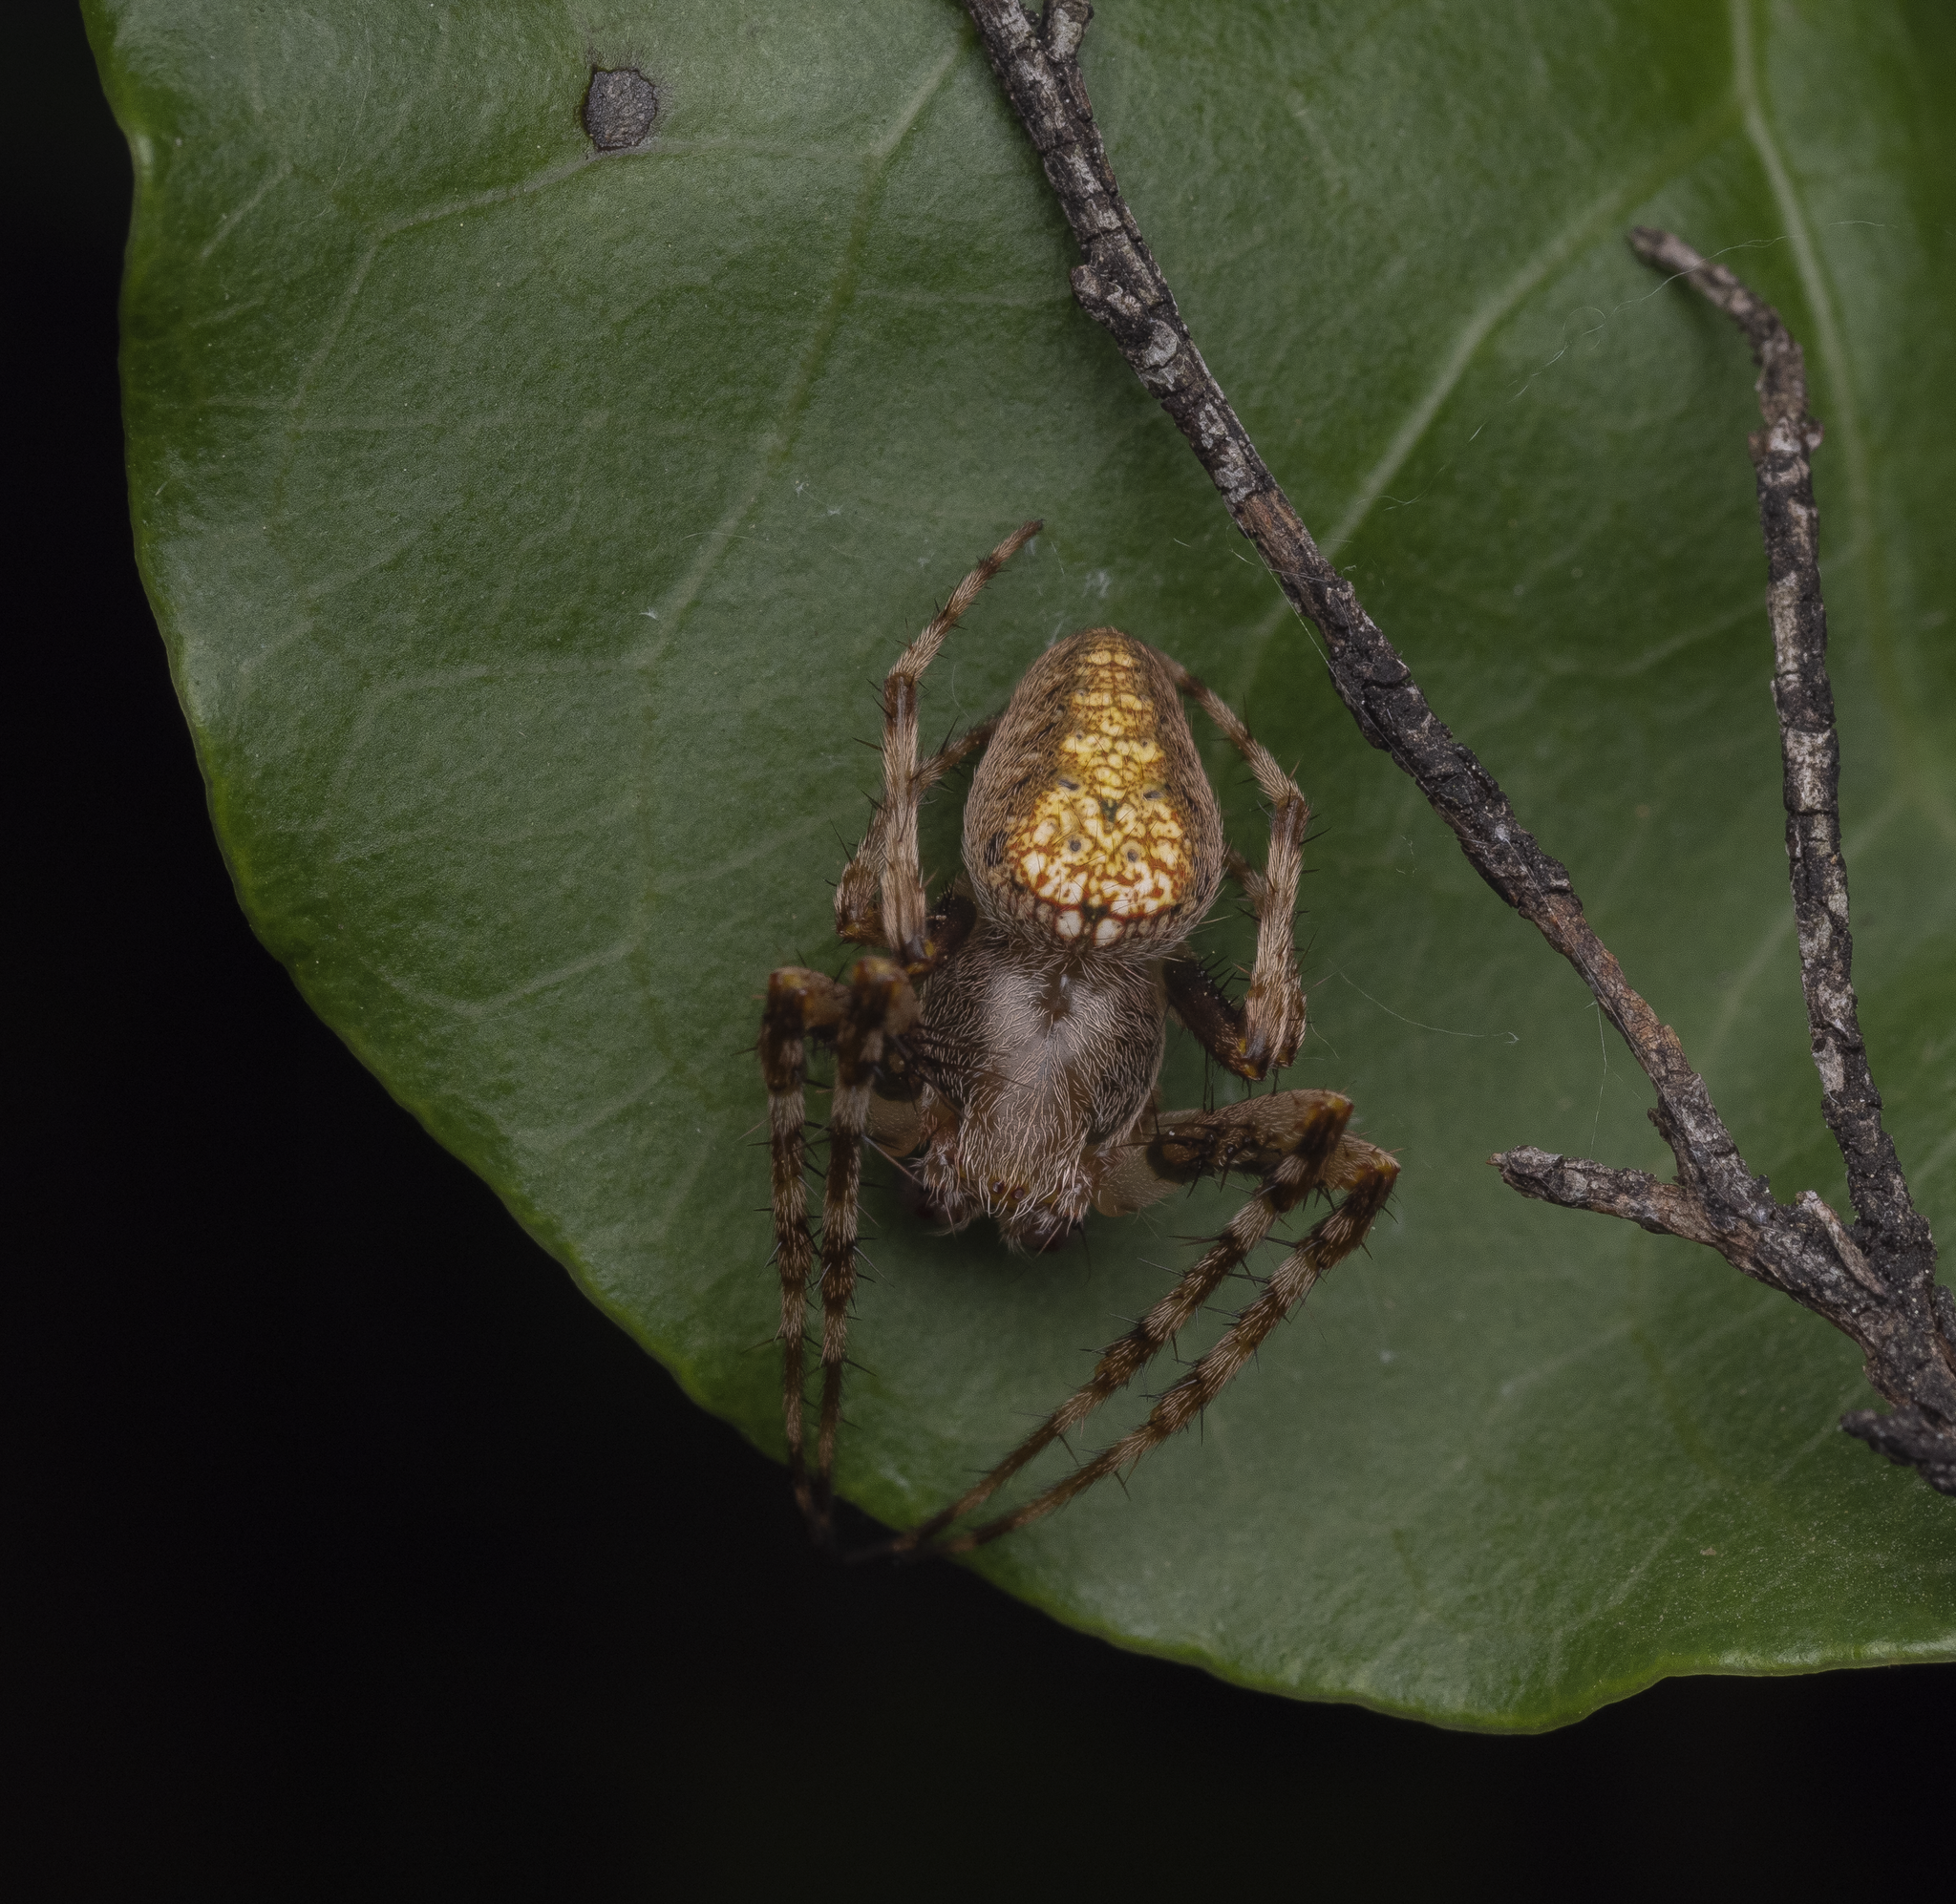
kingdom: Animalia
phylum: Arthropoda
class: Arachnida
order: Araneae
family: Araneidae
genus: Zealaranea
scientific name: Zealaranea crassa
